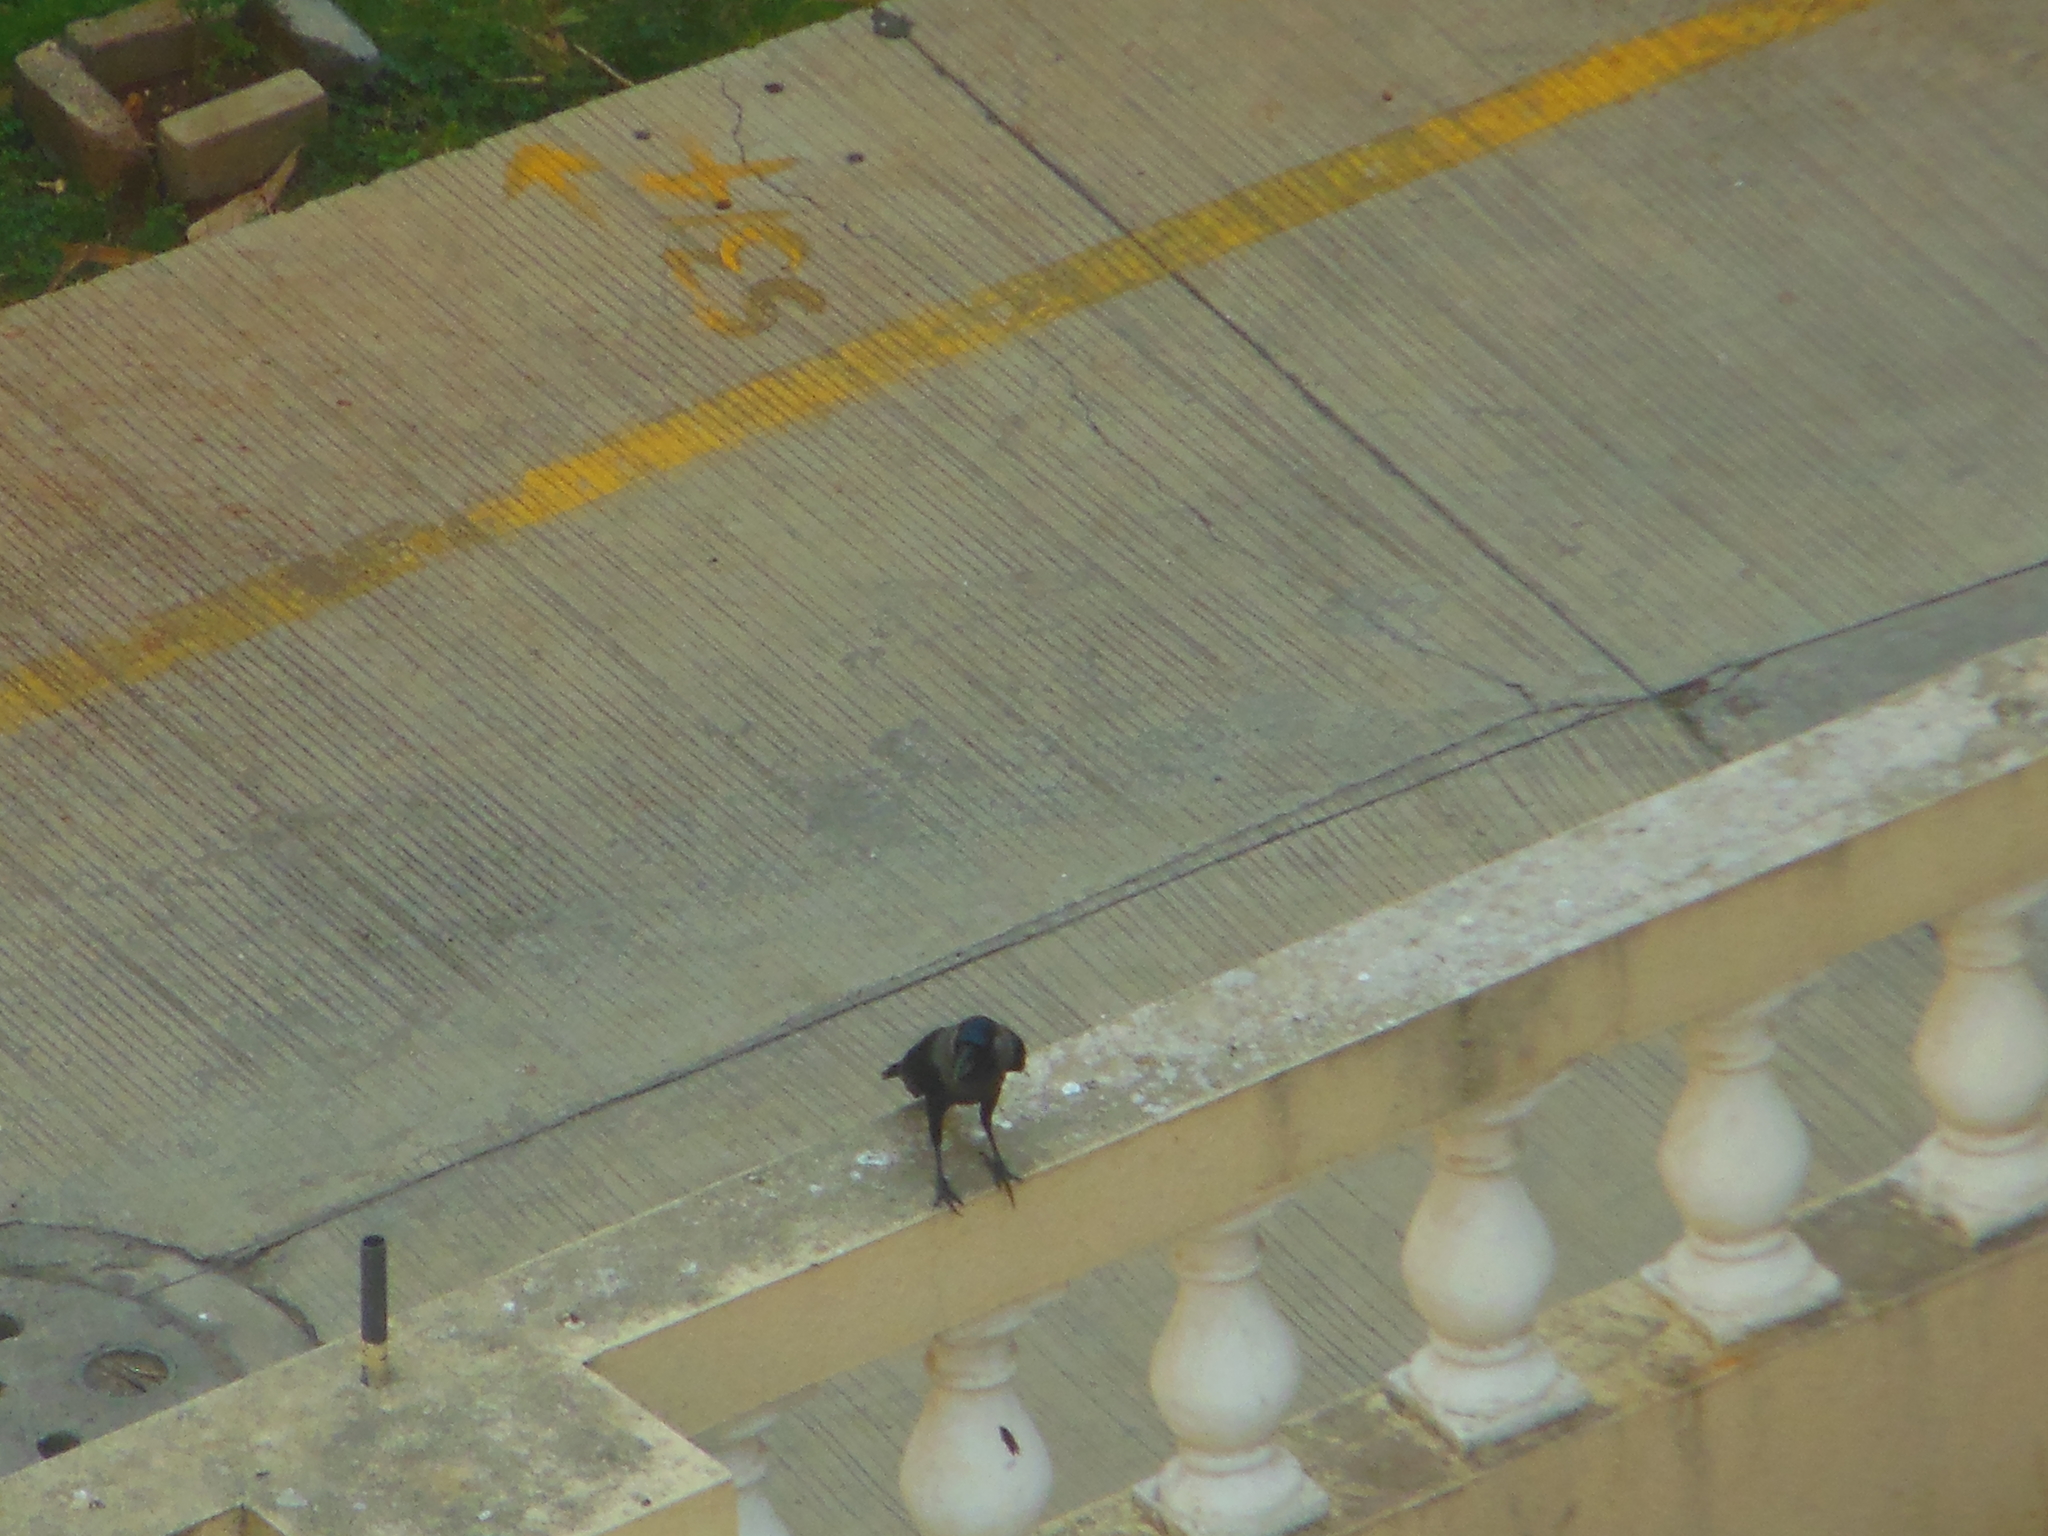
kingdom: Animalia
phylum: Chordata
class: Aves
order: Passeriformes
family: Corvidae
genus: Corvus
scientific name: Corvus splendens
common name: House crow
